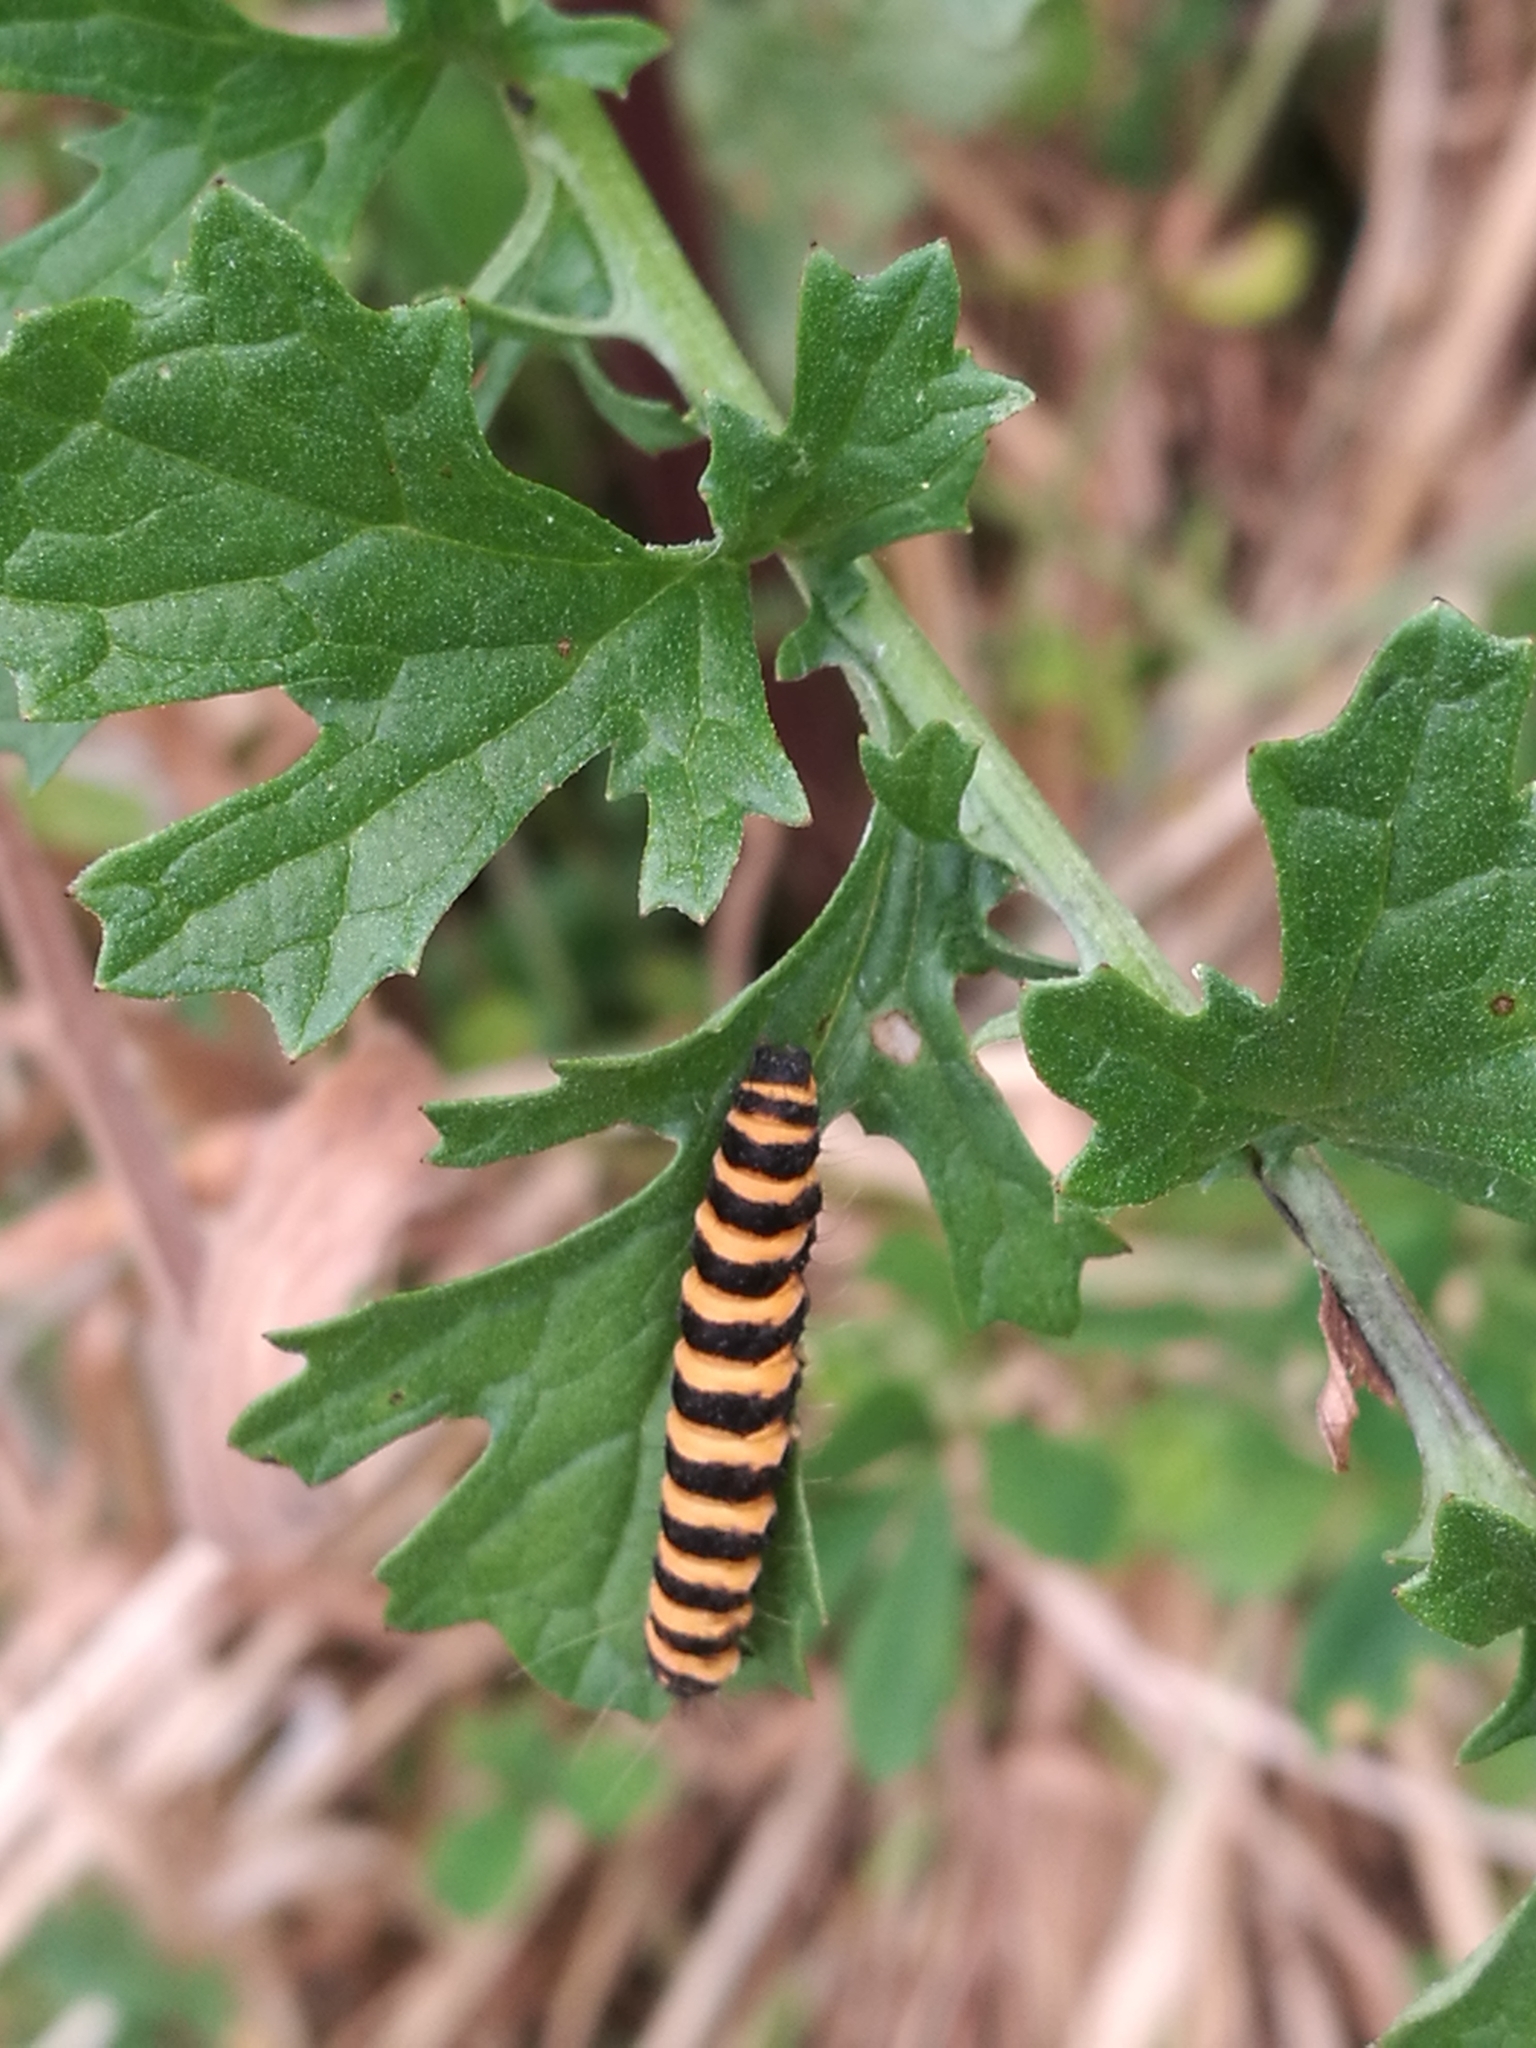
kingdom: Animalia
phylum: Arthropoda
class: Insecta
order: Lepidoptera
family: Erebidae
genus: Tyria
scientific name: Tyria jacobaeae
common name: Cinnabar
